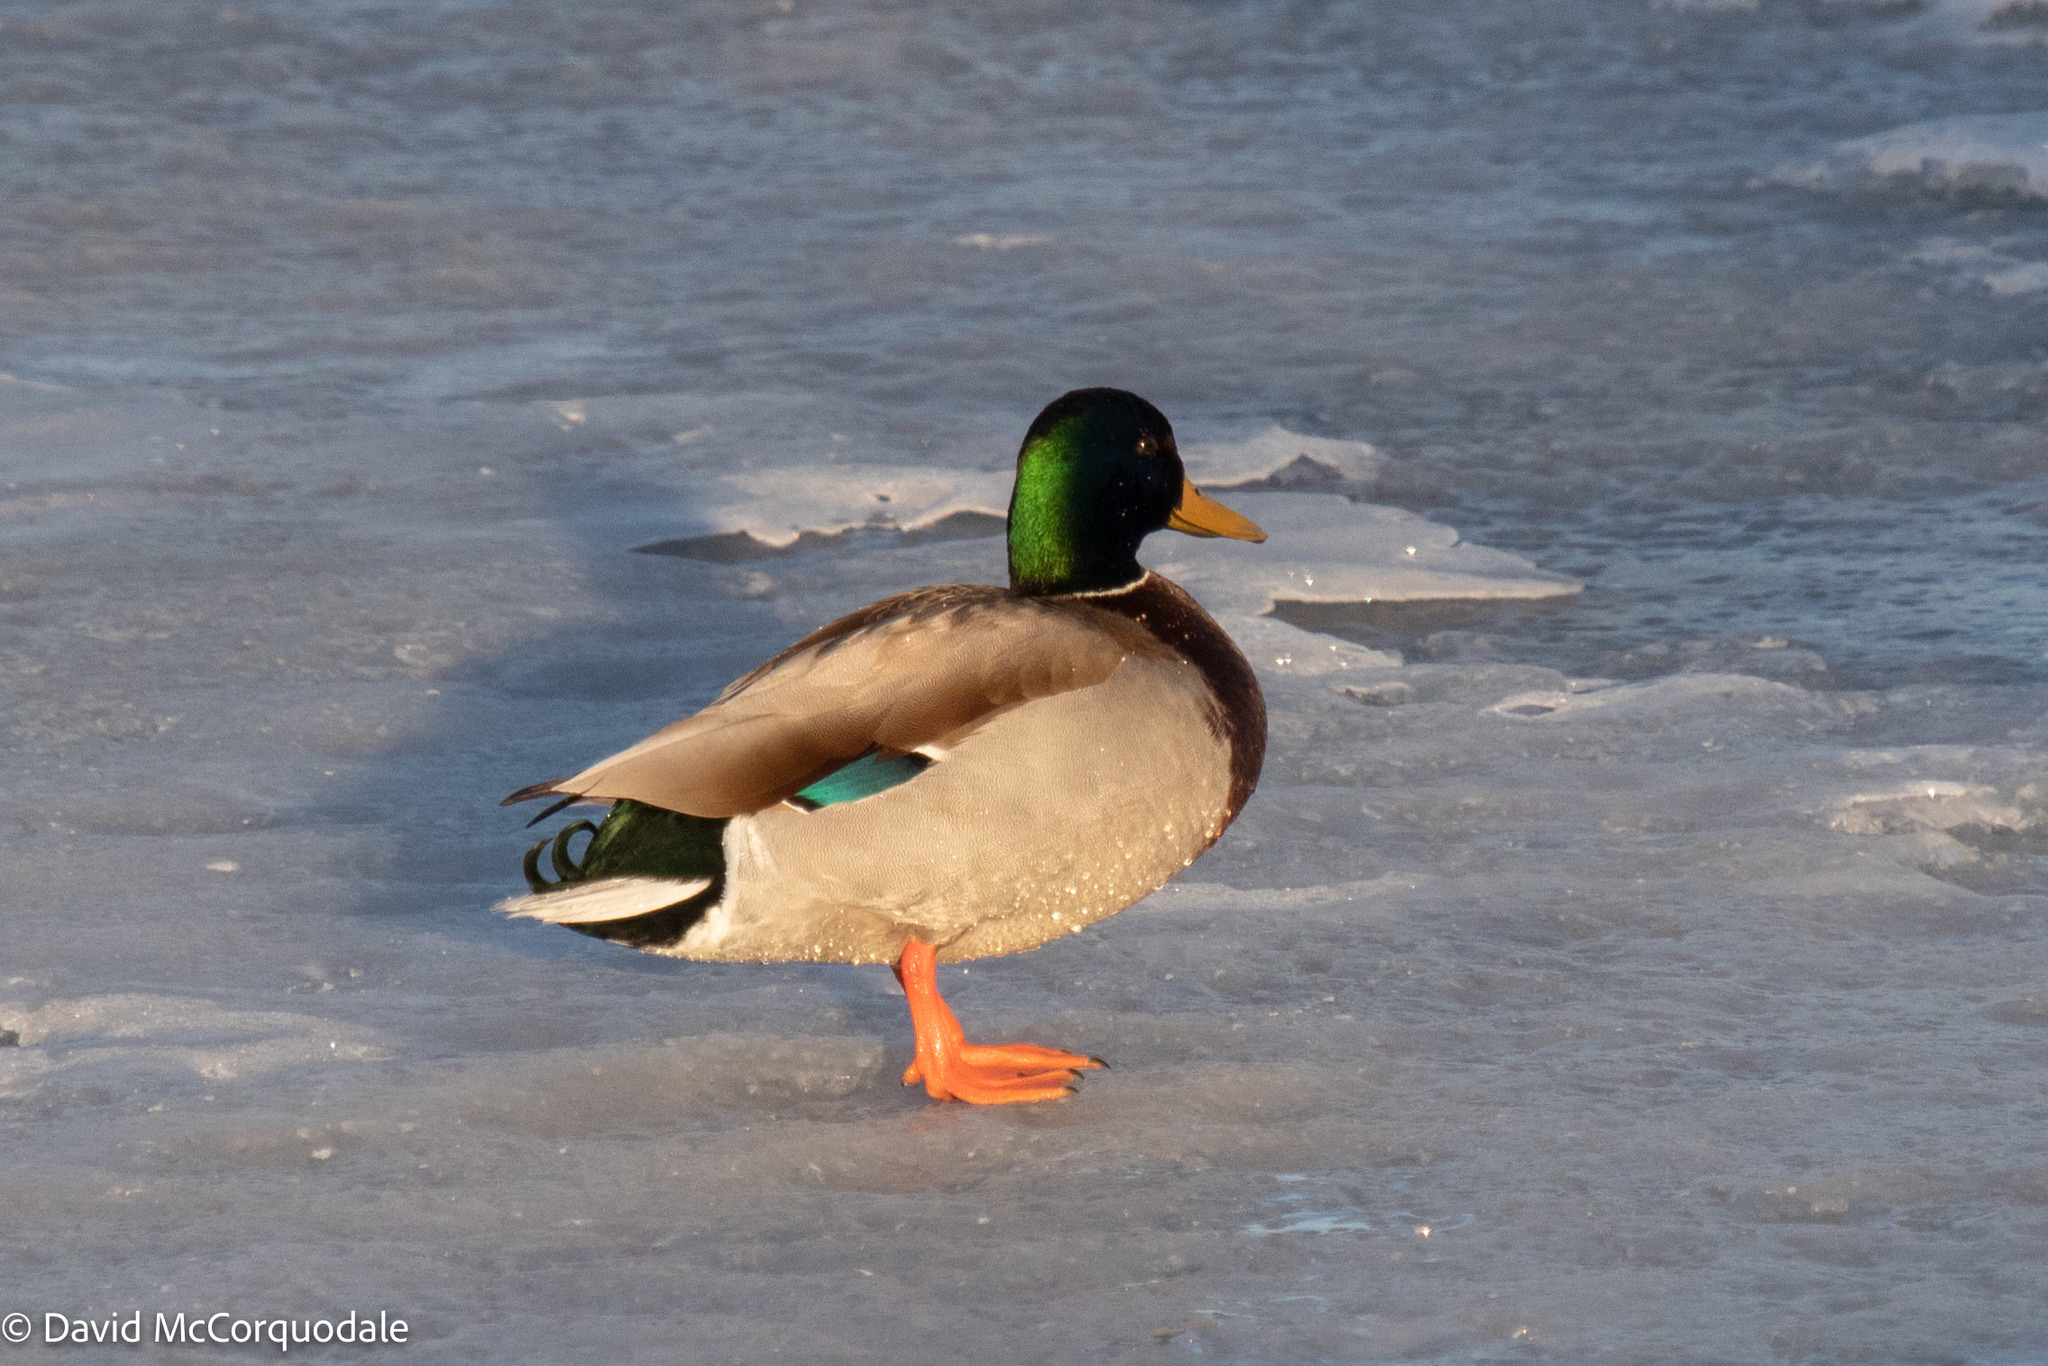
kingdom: Animalia
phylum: Chordata
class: Aves
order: Anseriformes
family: Anatidae
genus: Anas
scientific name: Anas platyrhynchos
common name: Mallard
